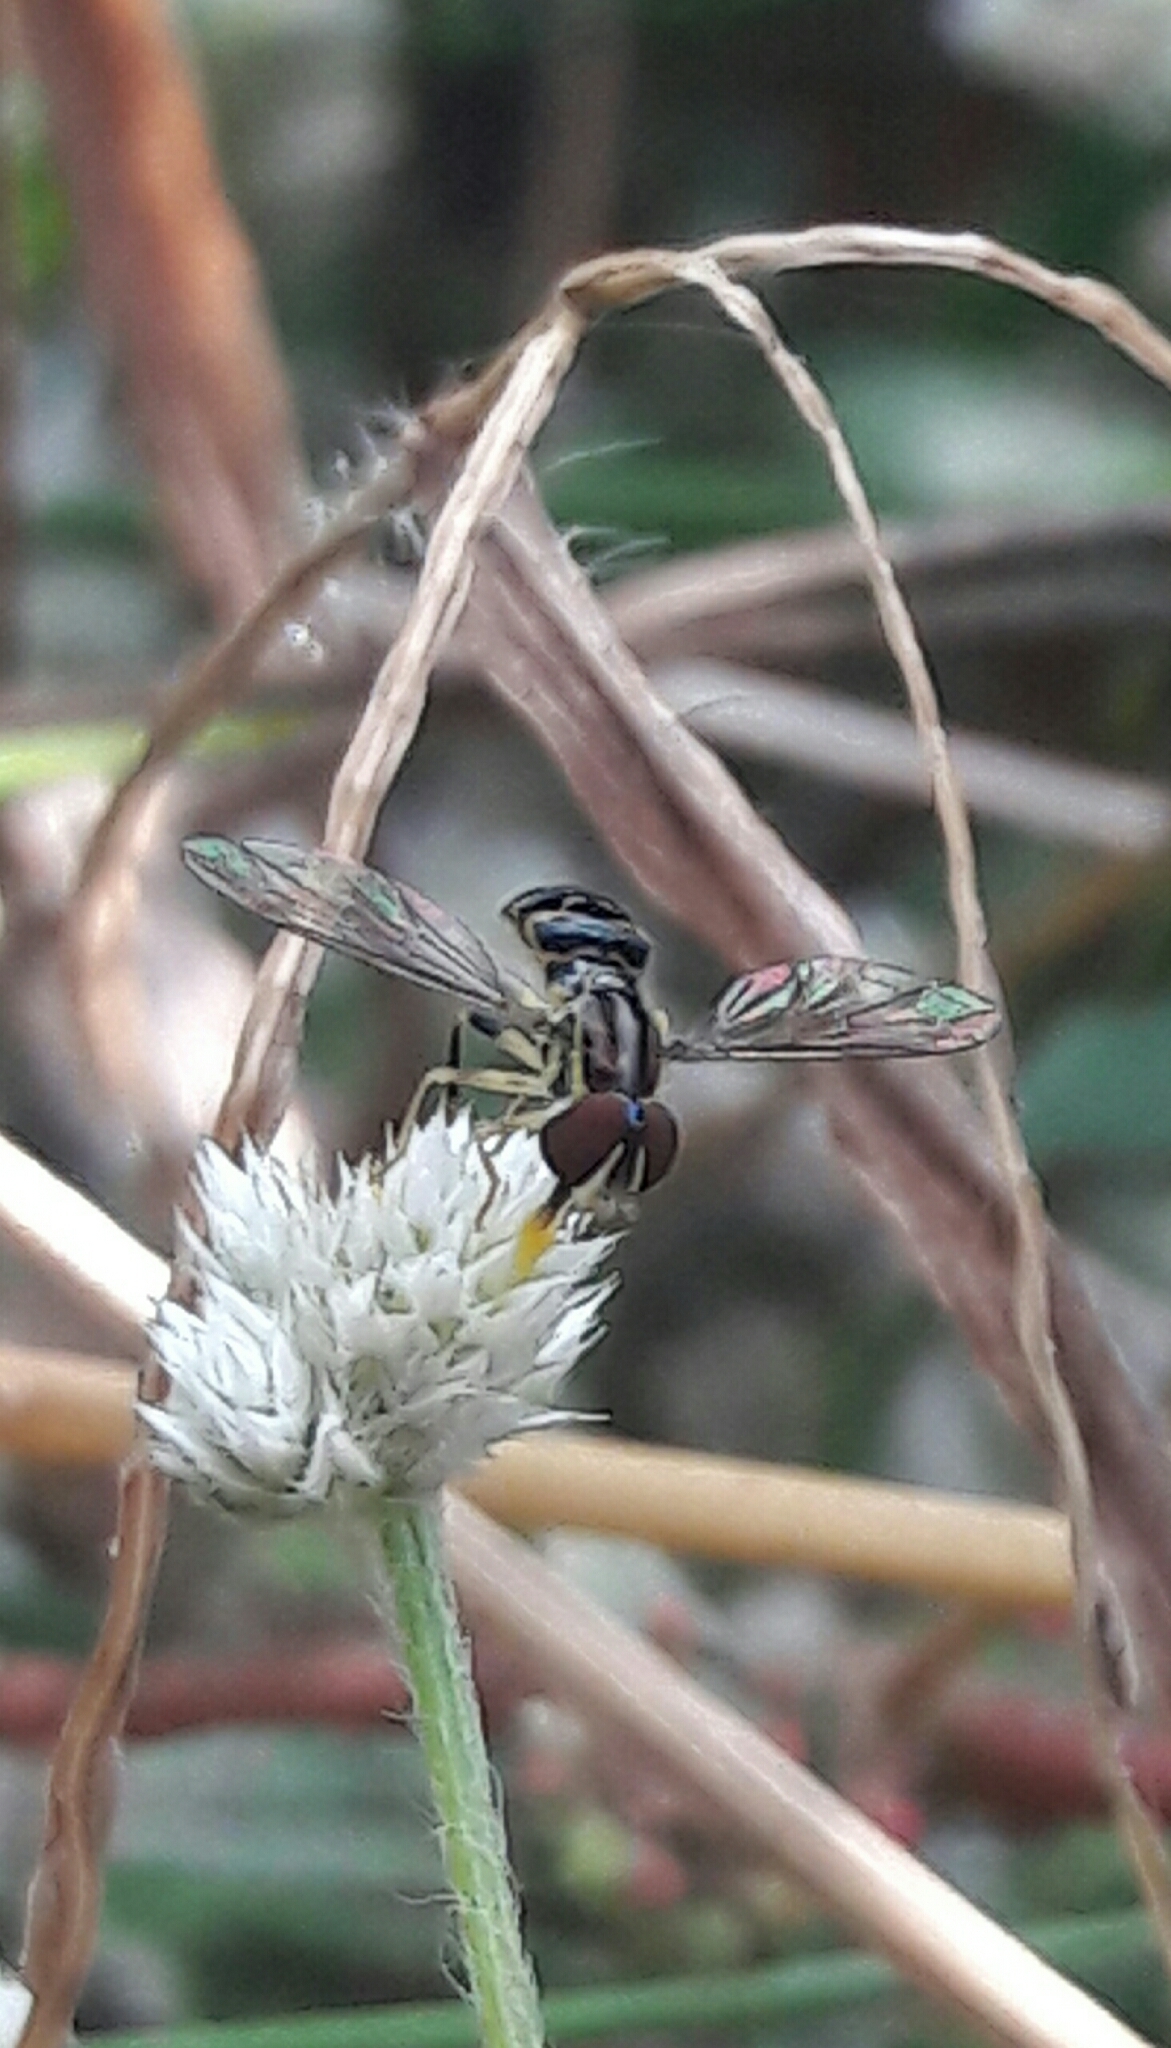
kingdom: Animalia
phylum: Arthropoda
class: Insecta
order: Diptera
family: Syrphidae
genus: Toxomerus
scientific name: Toxomerus virgulatus
